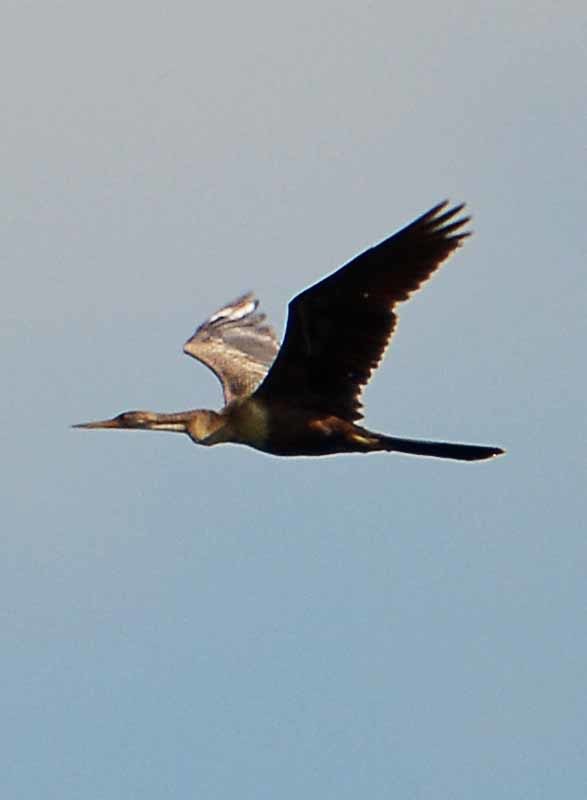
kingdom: Animalia
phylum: Chordata
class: Aves
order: Suliformes
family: Anhingidae
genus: Anhinga
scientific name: Anhinga anhinga
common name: Anhinga
